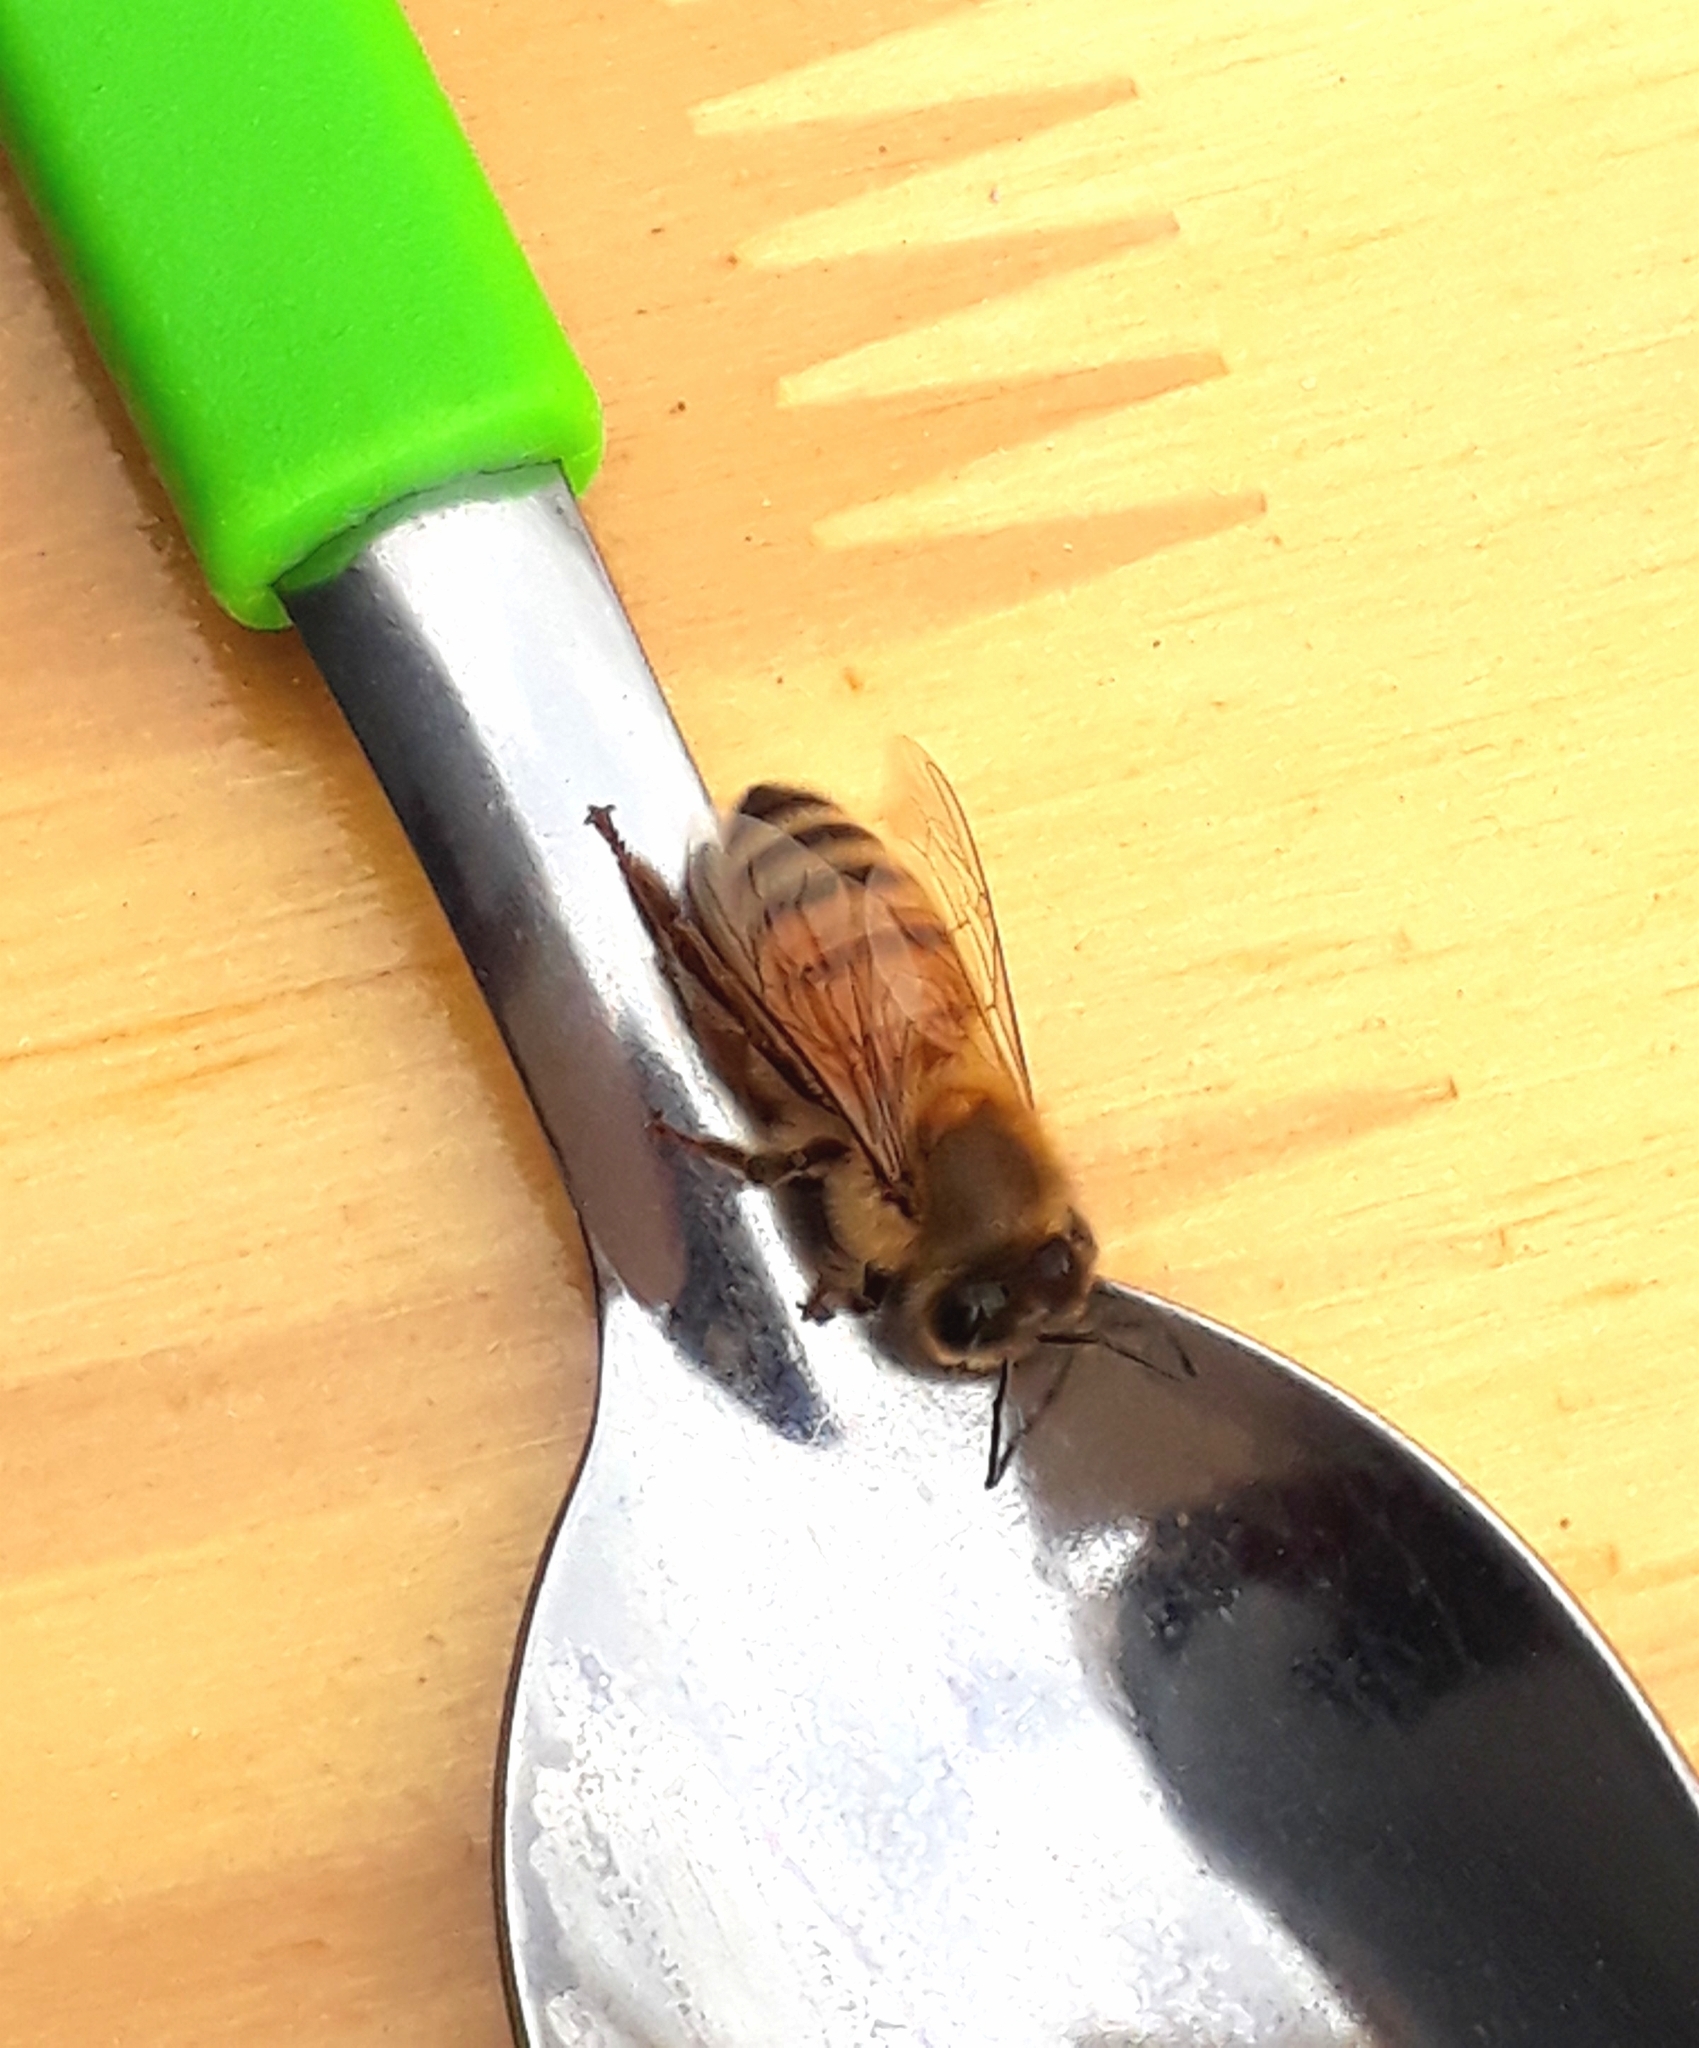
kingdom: Animalia
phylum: Arthropoda
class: Insecta
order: Hymenoptera
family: Apidae
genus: Apis
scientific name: Apis mellifera
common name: Honey bee
